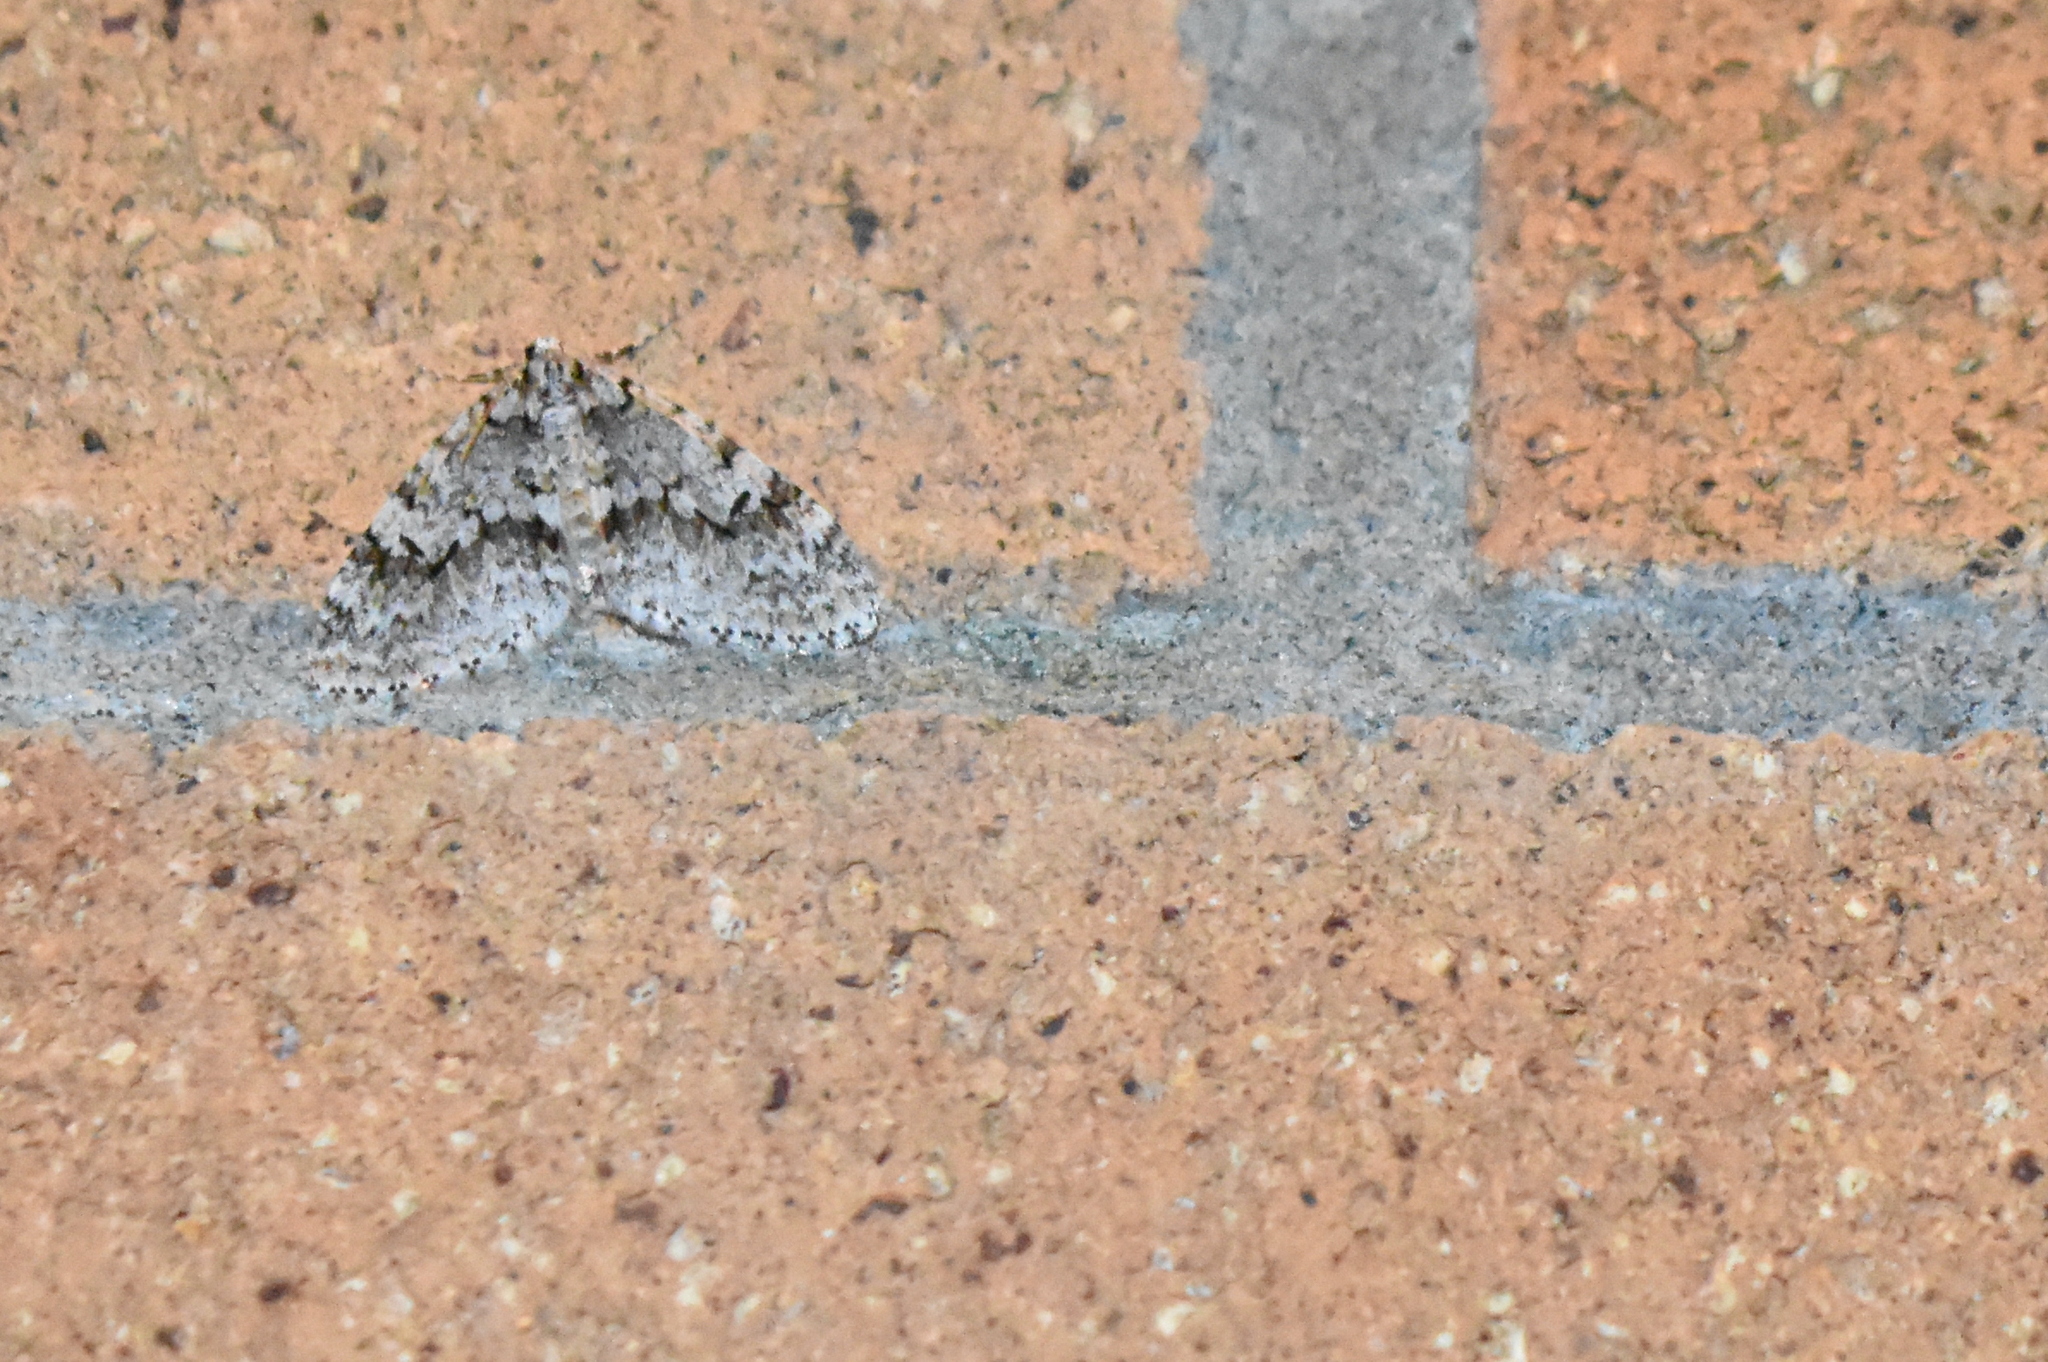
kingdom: Animalia
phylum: Arthropoda
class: Insecta
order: Lepidoptera
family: Geometridae
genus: Cladara
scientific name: Cladara limitaria
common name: Mottled gray carpet
